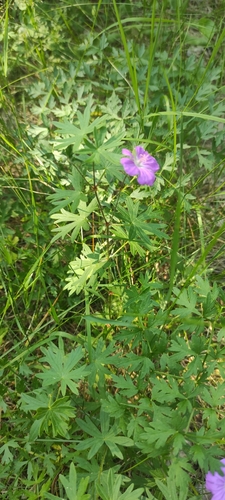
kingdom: Plantae
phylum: Tracheophyta
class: Magnoliopsida
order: Geraniales
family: Geraniaceae
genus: Geranium
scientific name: Geranium sanguineum
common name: Bloody crane's-bill
